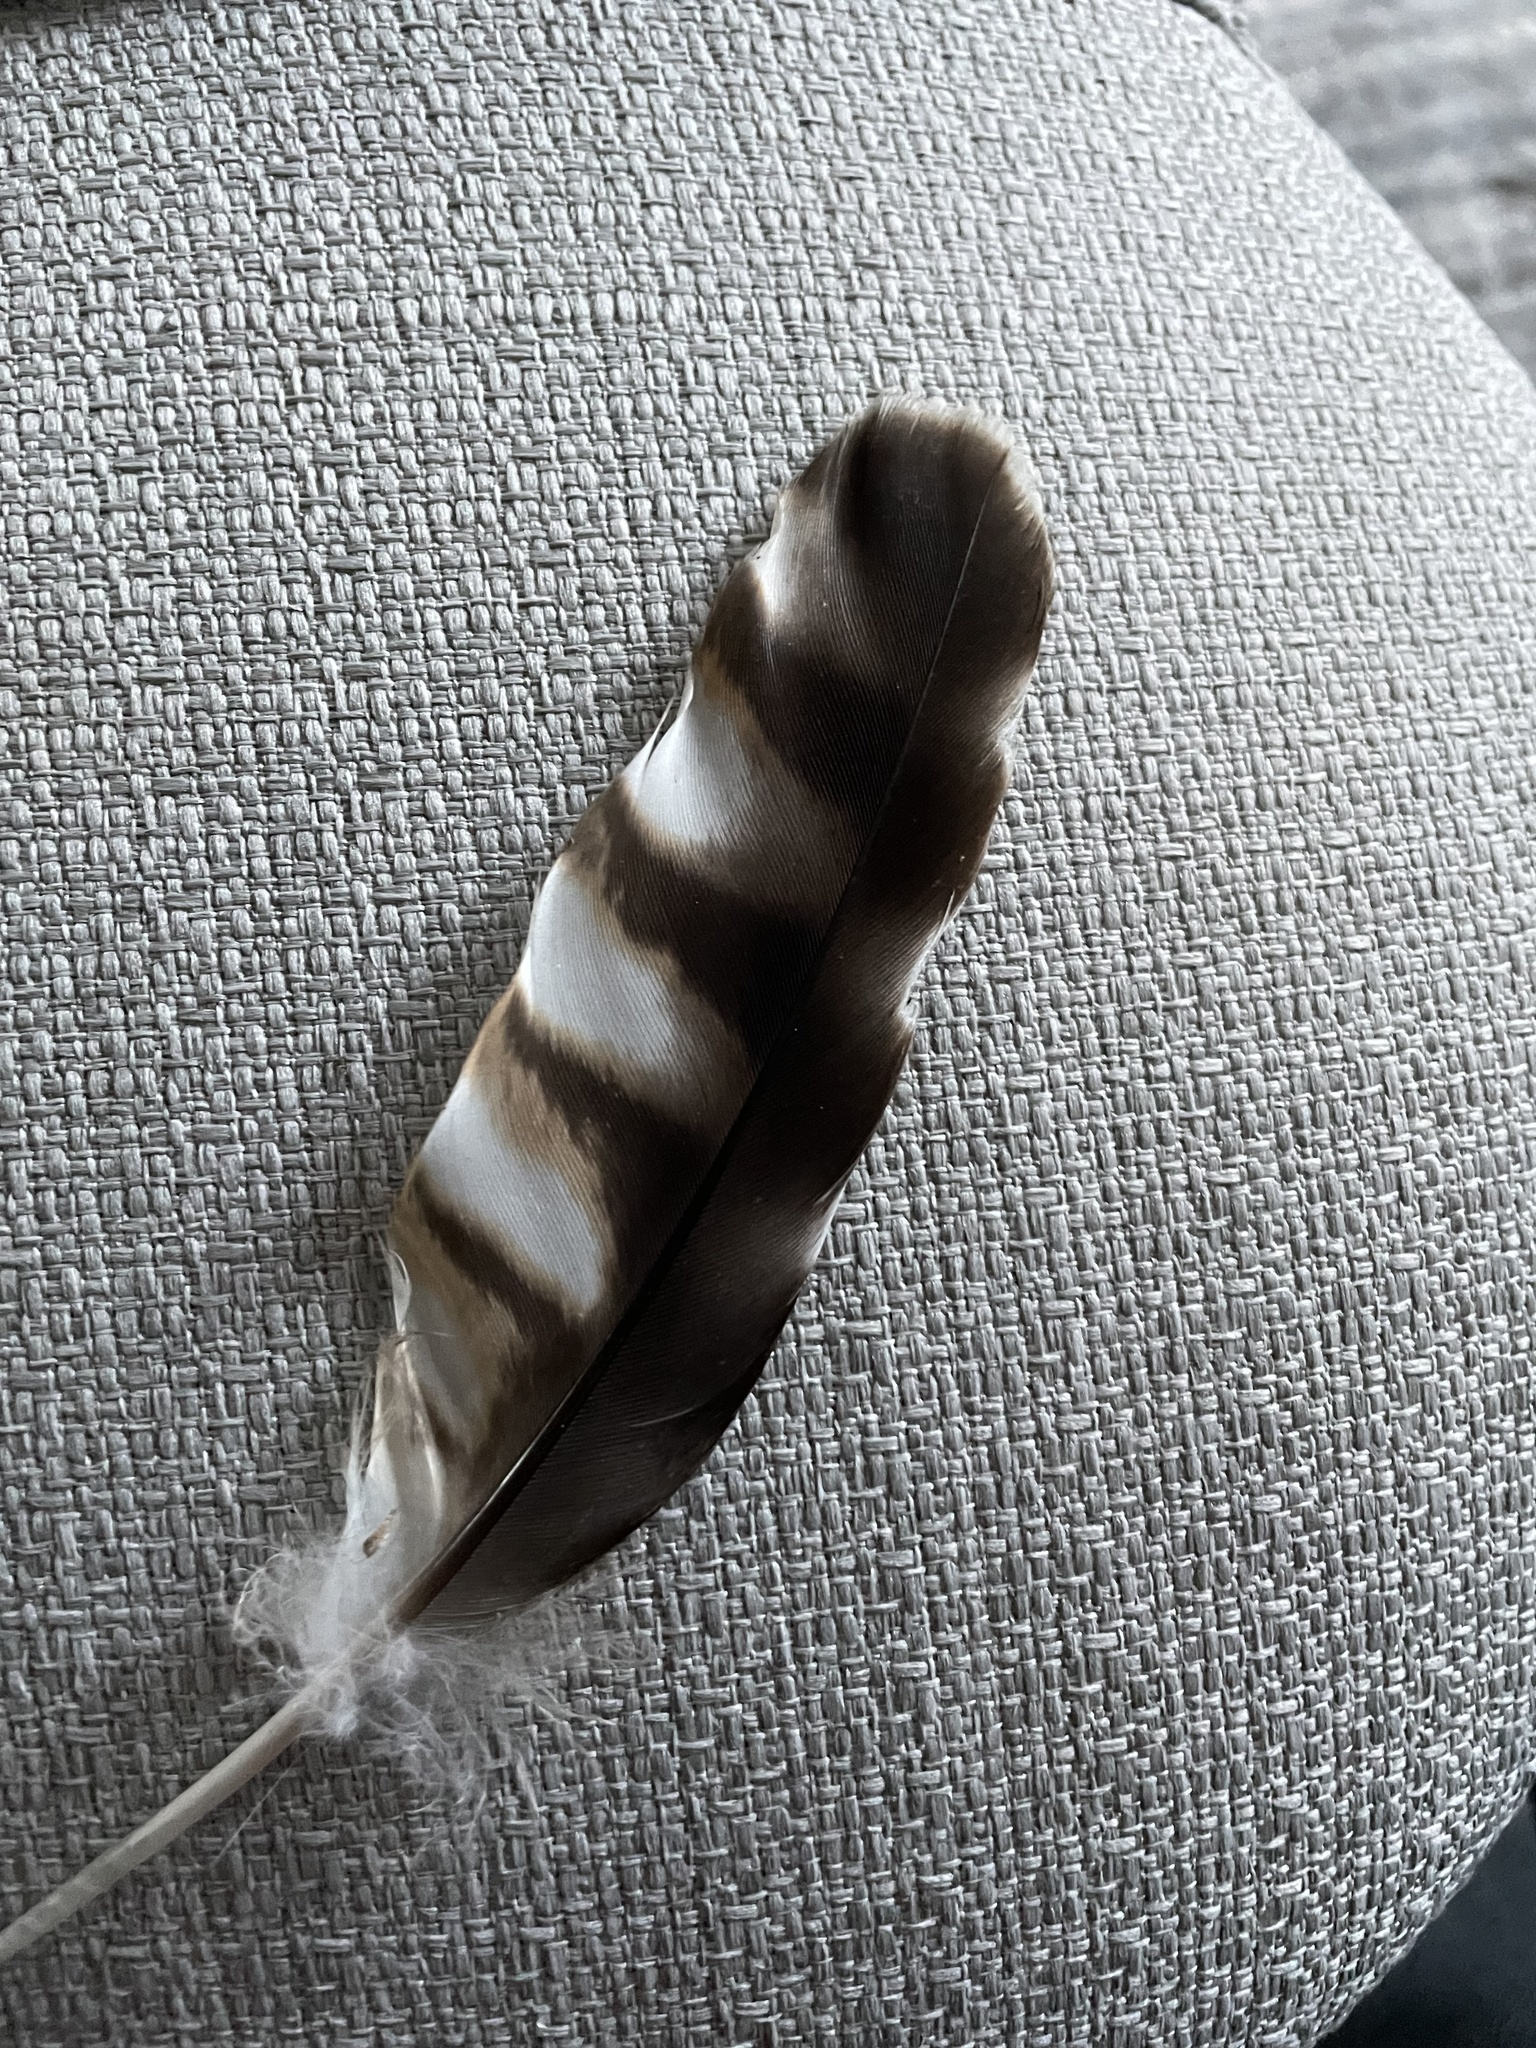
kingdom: Animalia
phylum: Chordata
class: Aves
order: Accipitriformes
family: Accipitridae
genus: Buteo
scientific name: Buteo lineatus
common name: Red-shouldered hawk
